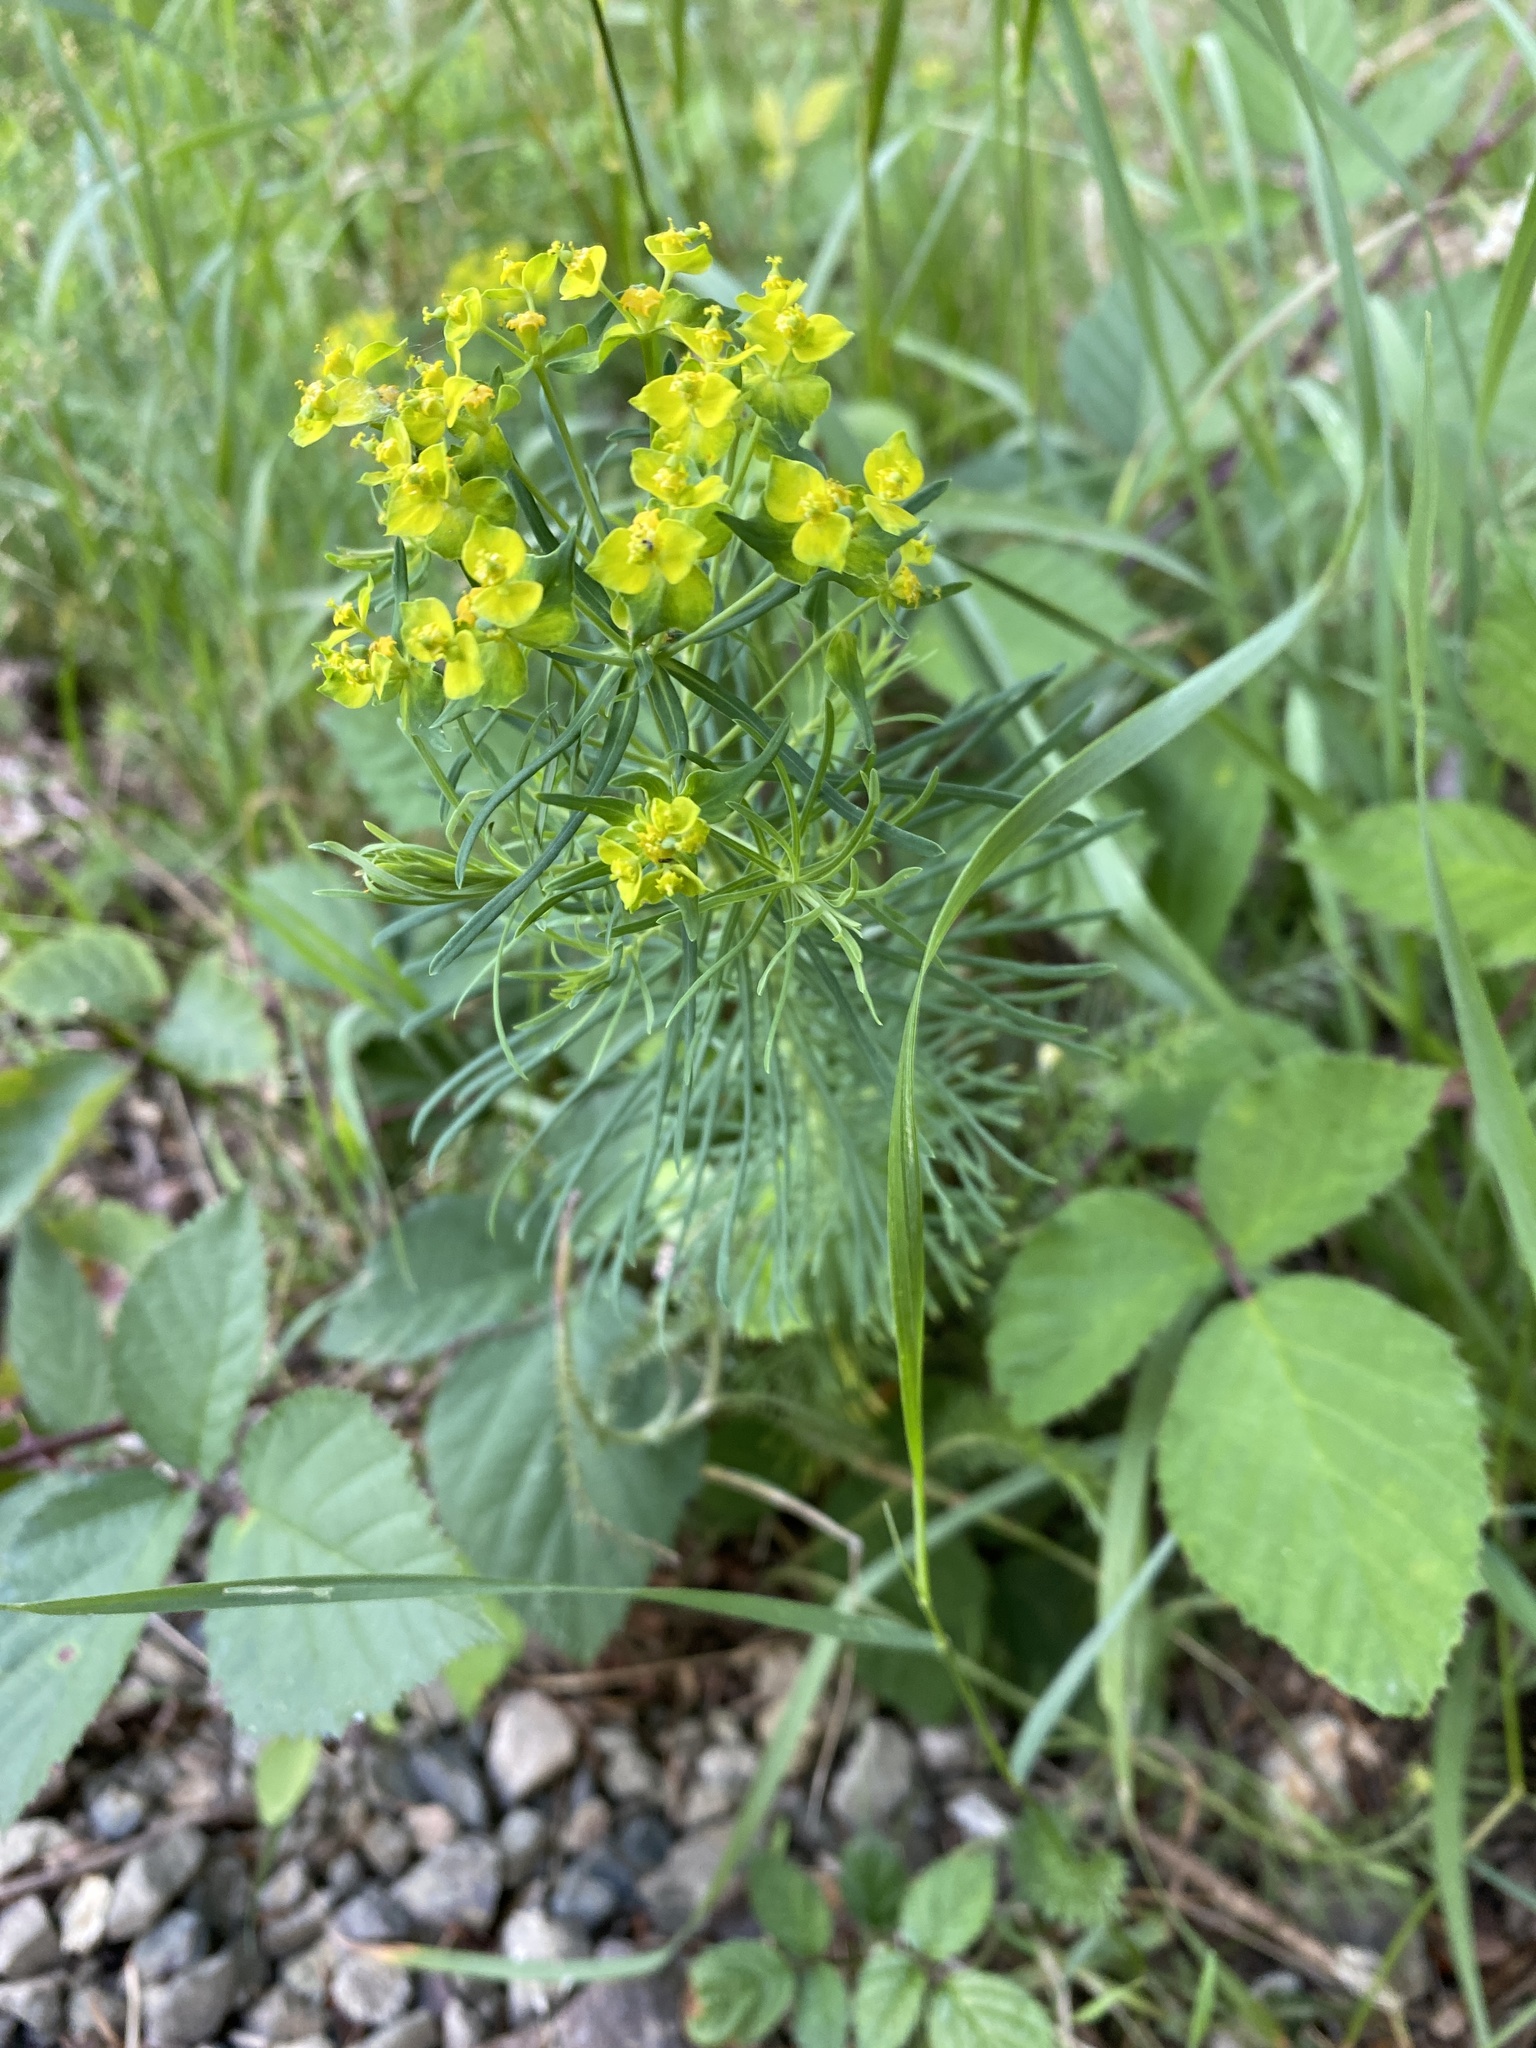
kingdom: Plantae
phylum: Tracheophyta
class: Magnoliopsida
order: Malpighiales
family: Euphorbiaceae
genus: Euphorbia
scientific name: Euphorbia cyparissias
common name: Cypress spurge
